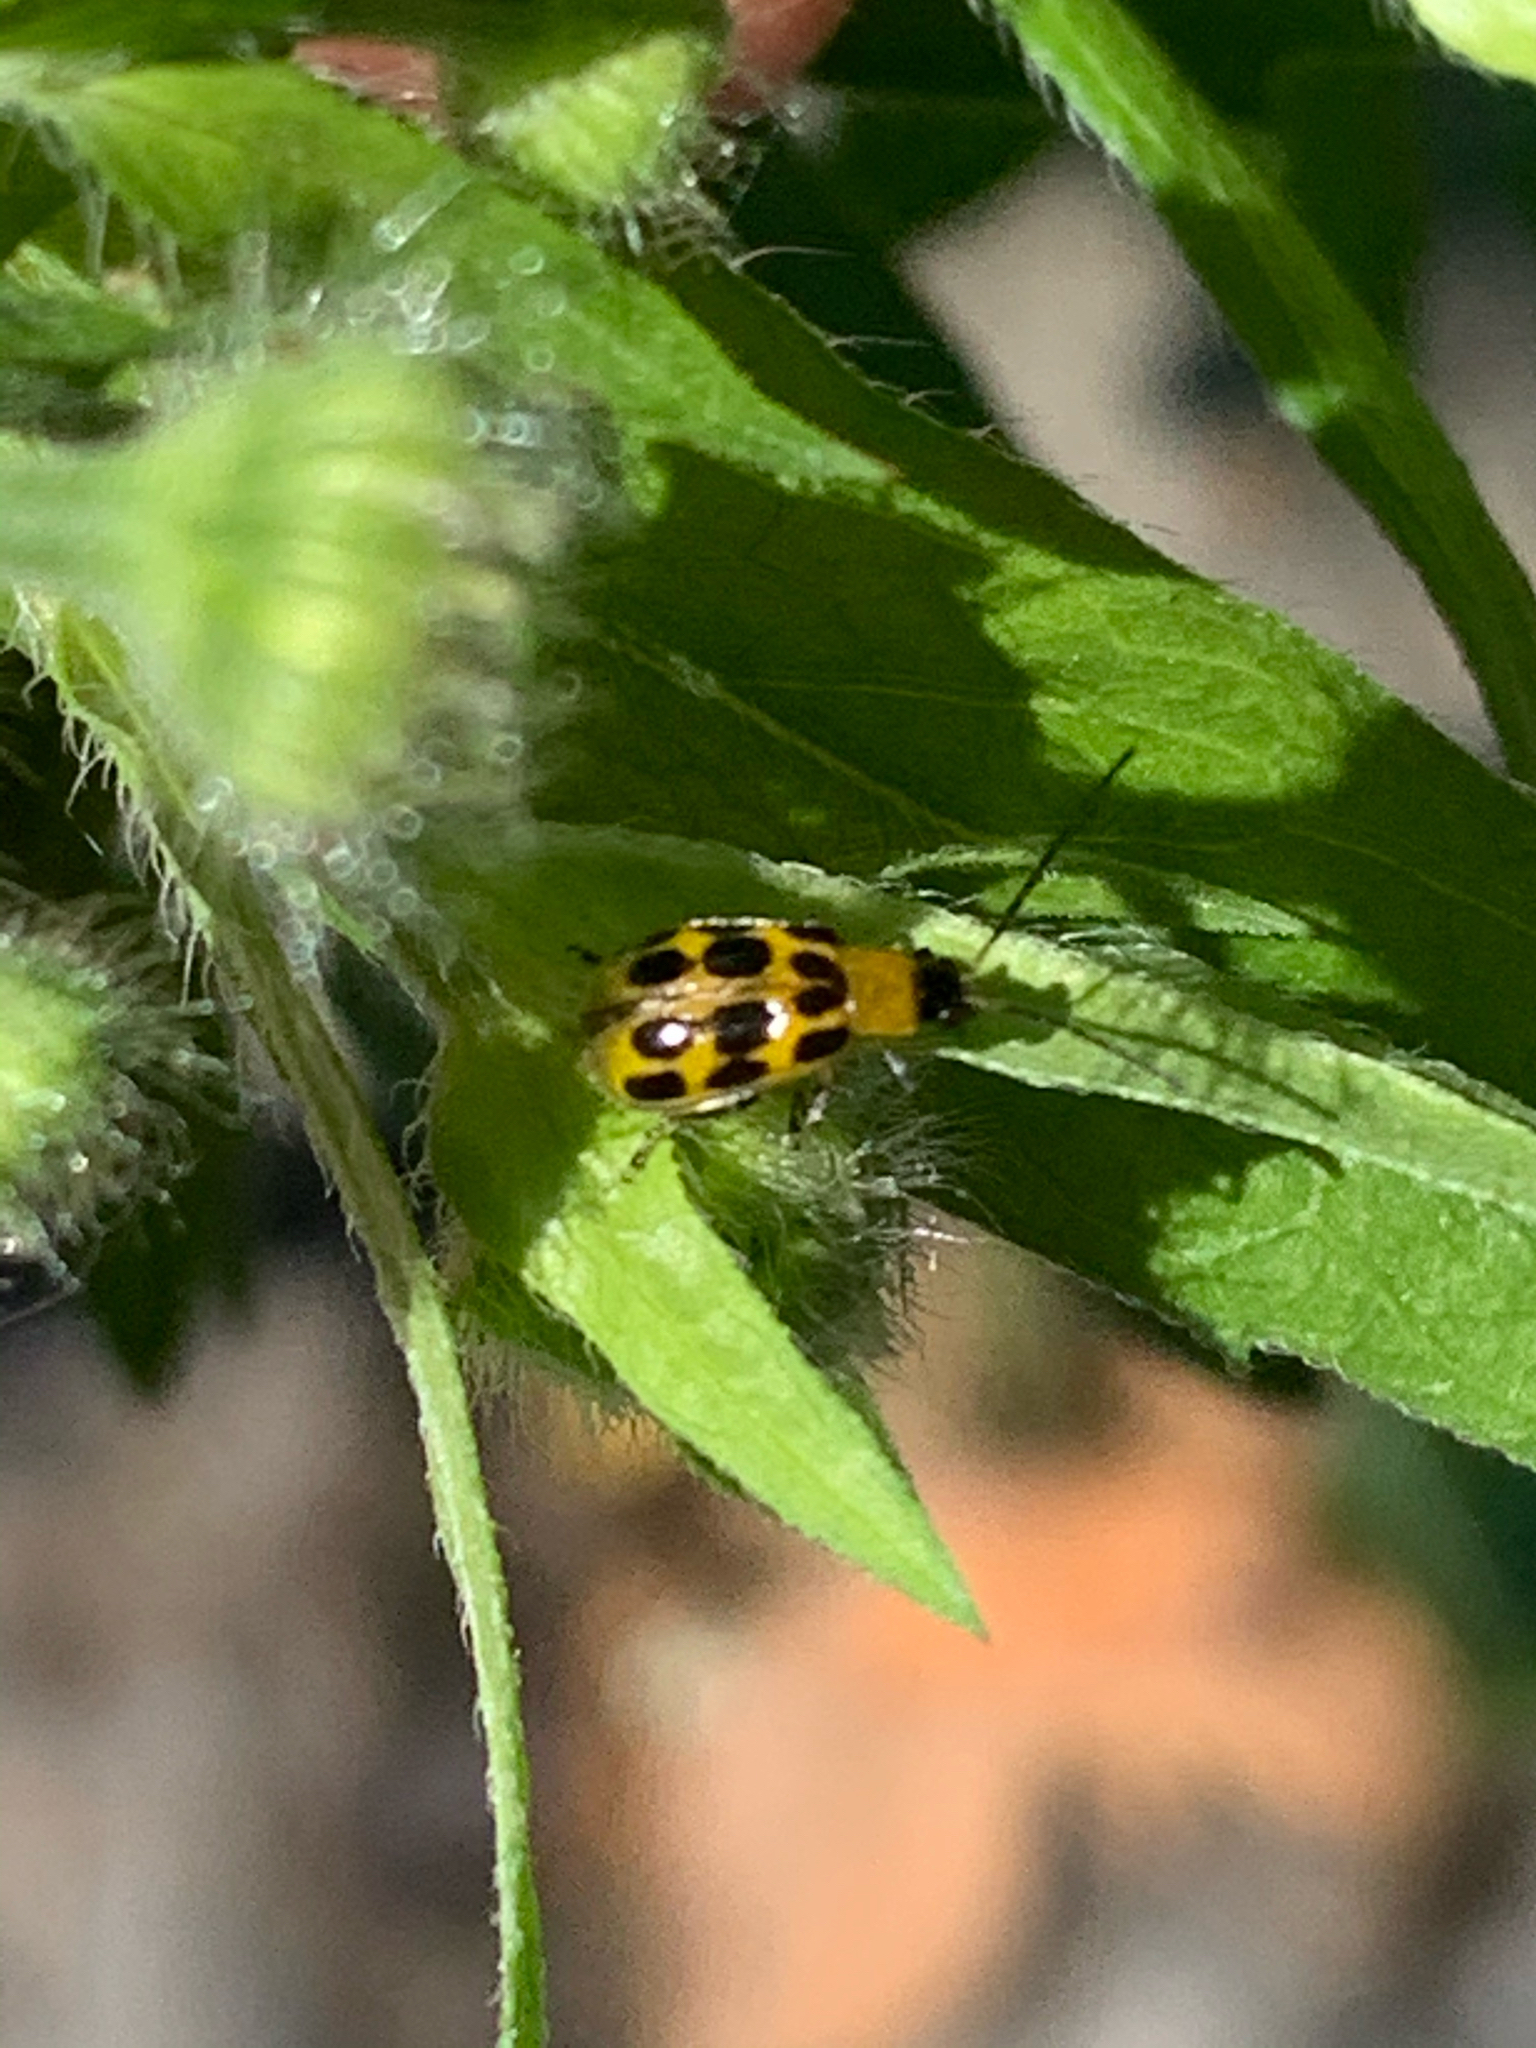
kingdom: Animalia
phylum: Arthropoda
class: Insecta
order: Coleoptera
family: Chrysomelidae
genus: Diabrotica
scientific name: Diabrotica undecimpunctata
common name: Spotted cucumber beetle
